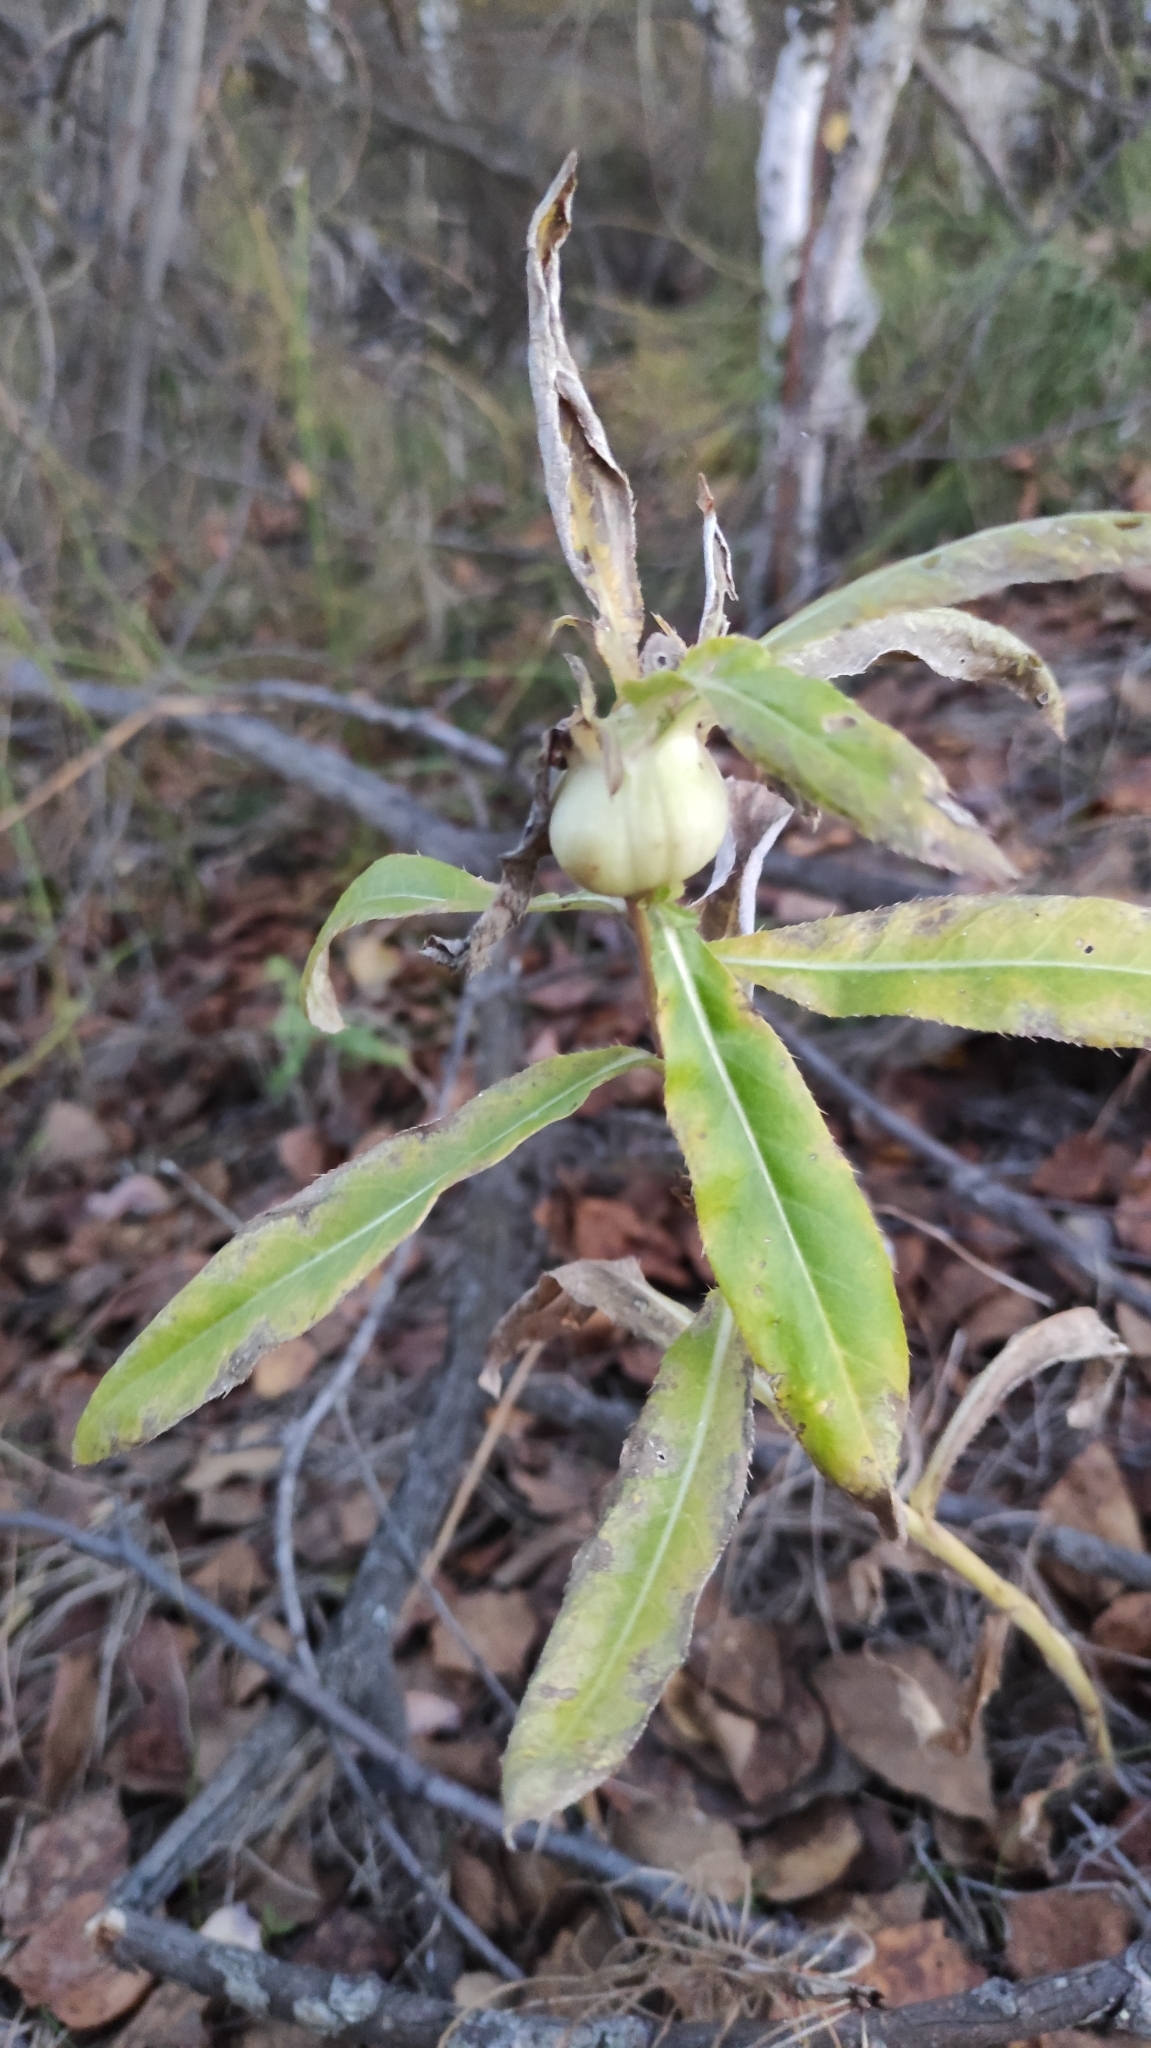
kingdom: Animalia
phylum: Arthropoda
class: Insecta
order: Diptera
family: Tephritidae
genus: Urophora
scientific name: Urophora cardui
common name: Fruit fly
